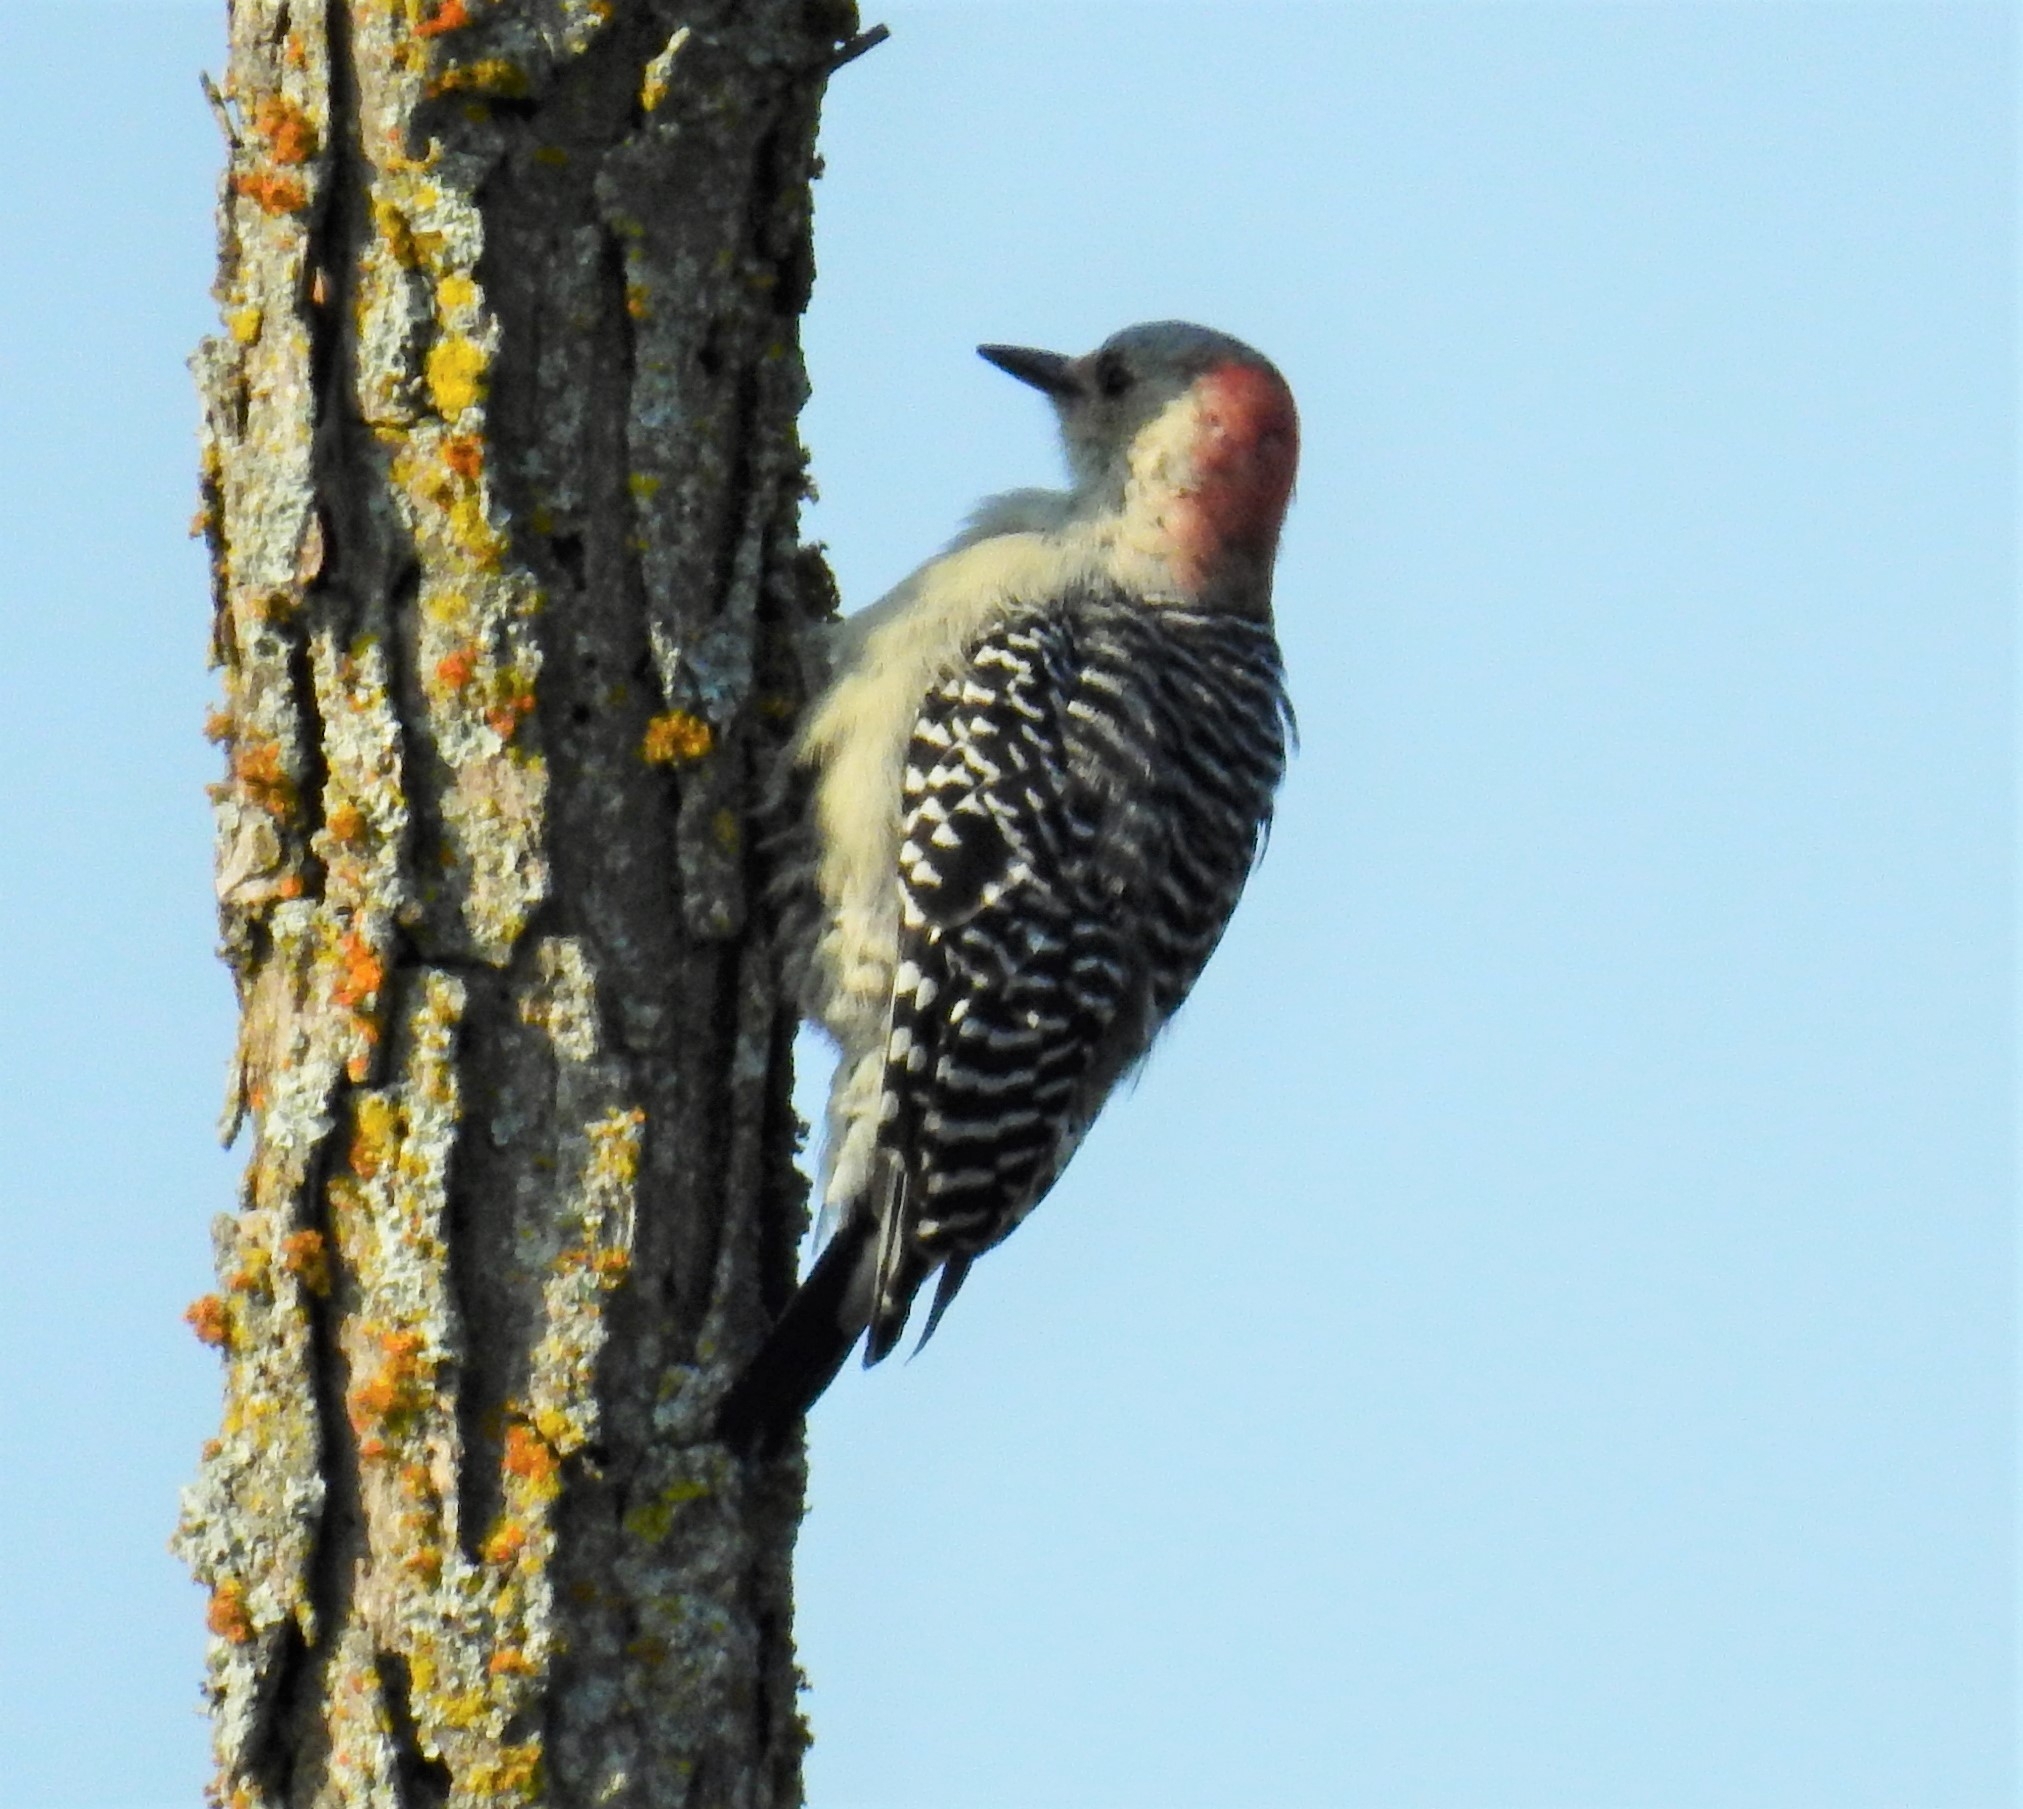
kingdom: Animalia
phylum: Chordata
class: Aves
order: Piciformes
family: Picidae
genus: Melanerpes
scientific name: Melanerpes carolinus
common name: Red-bellied woodpecker
